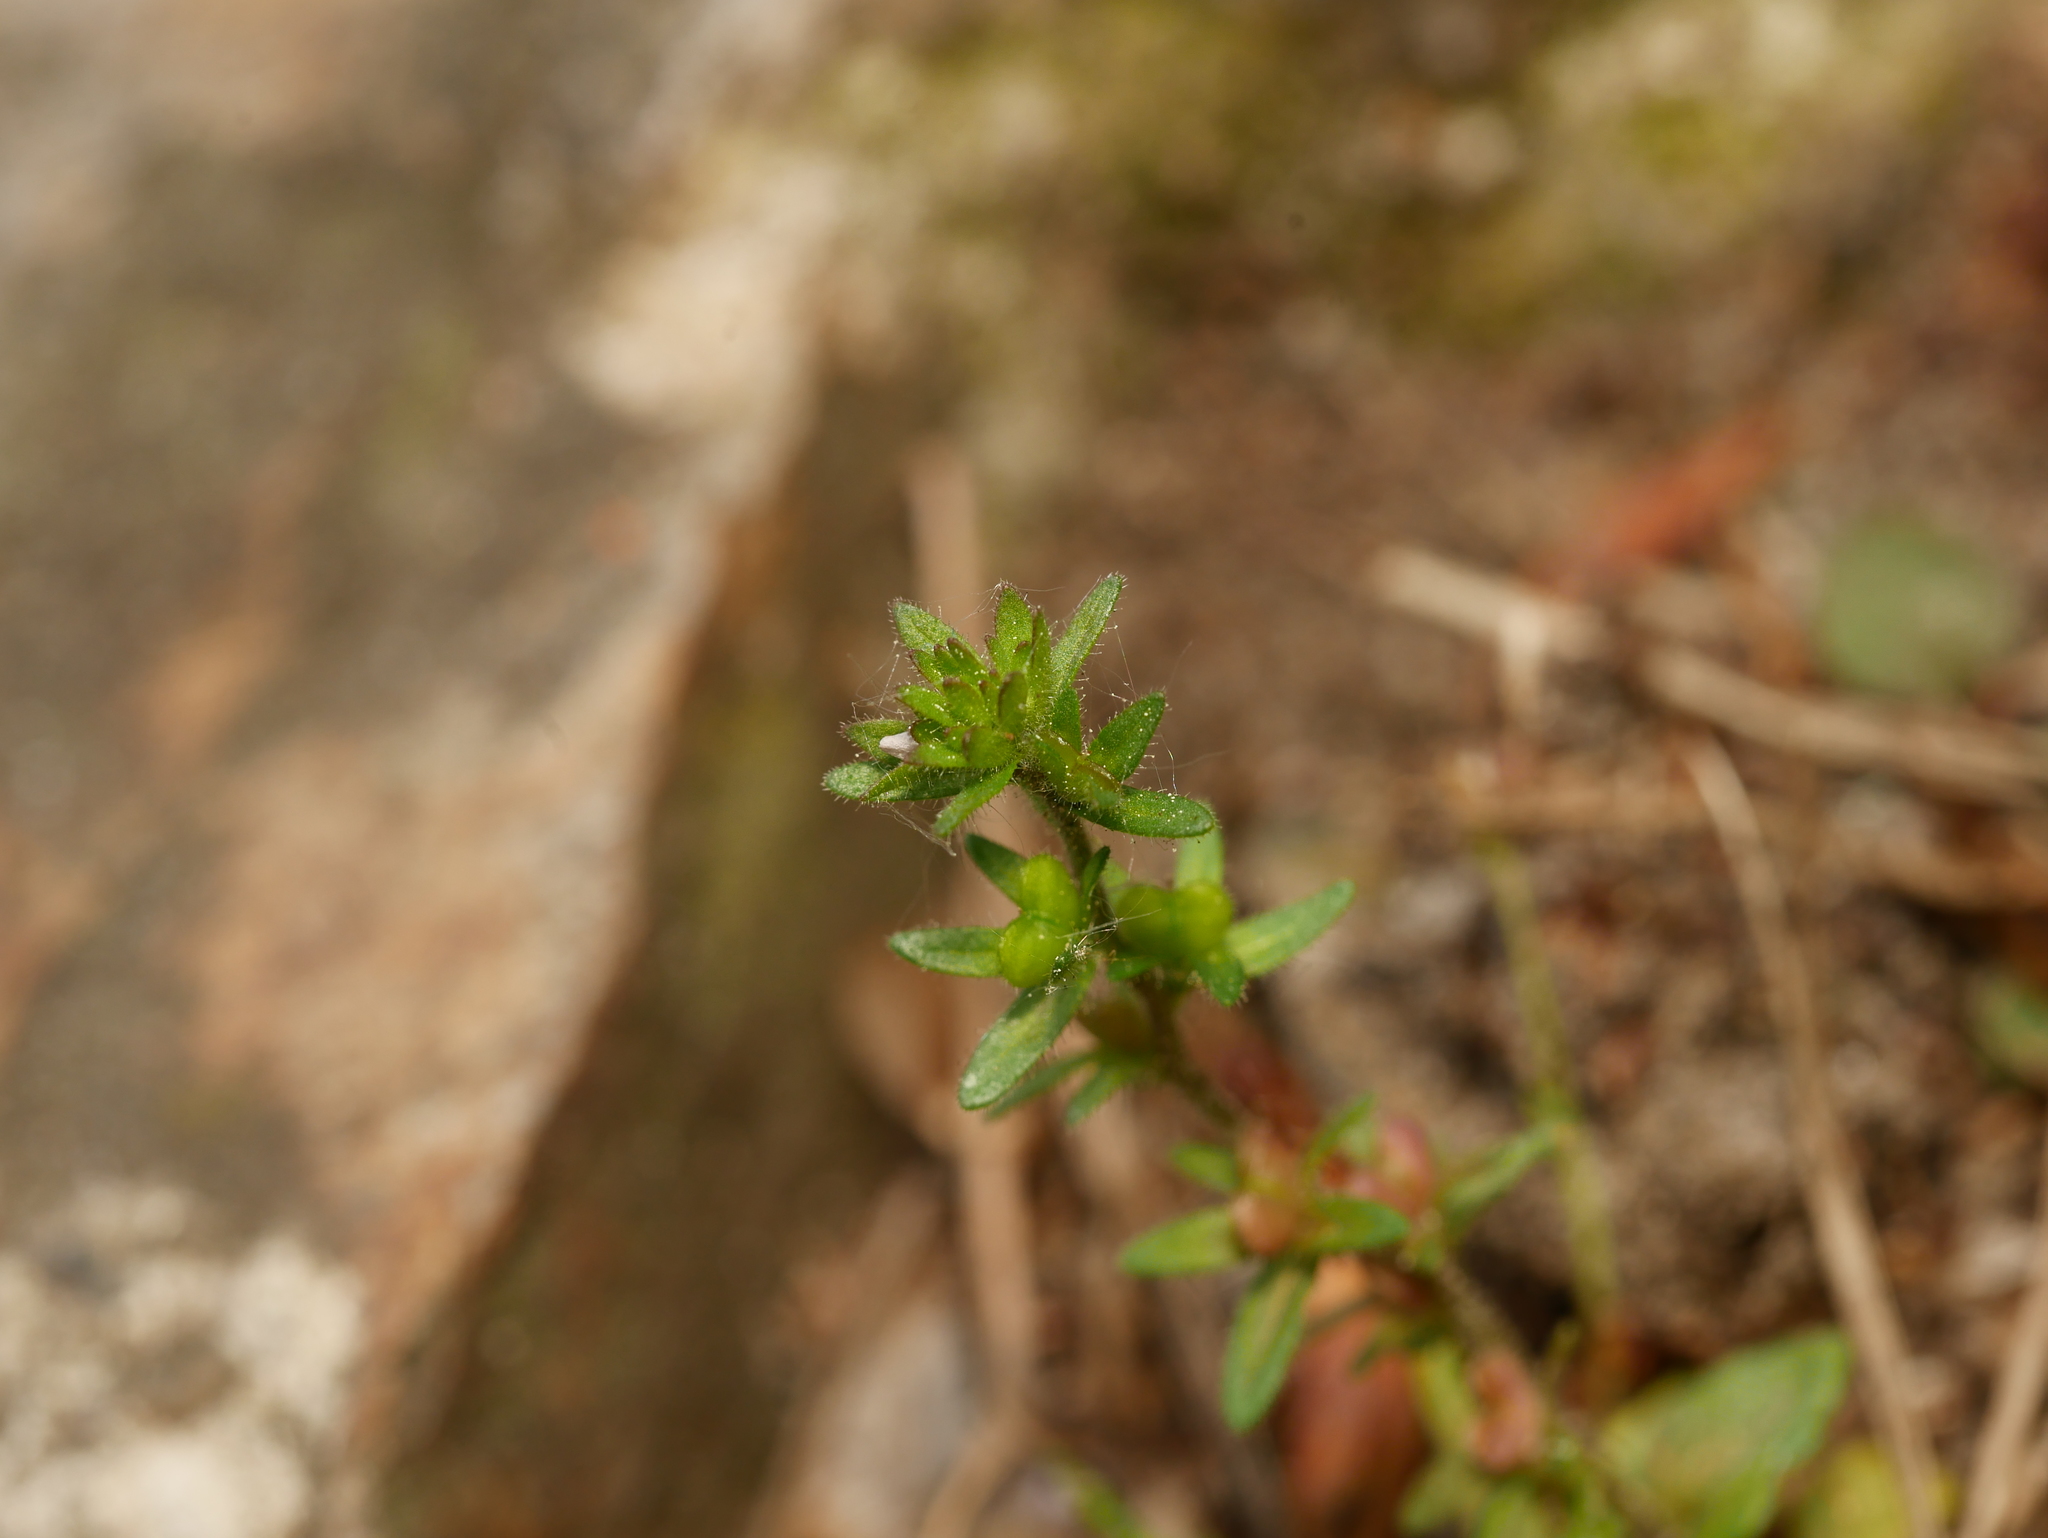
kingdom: Plantae
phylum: Tracheophyta
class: Magnoliopsida
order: Lamiales
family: Plantaginaceae
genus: Veronica
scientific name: Veronica arvensis
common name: Corn speedwell
